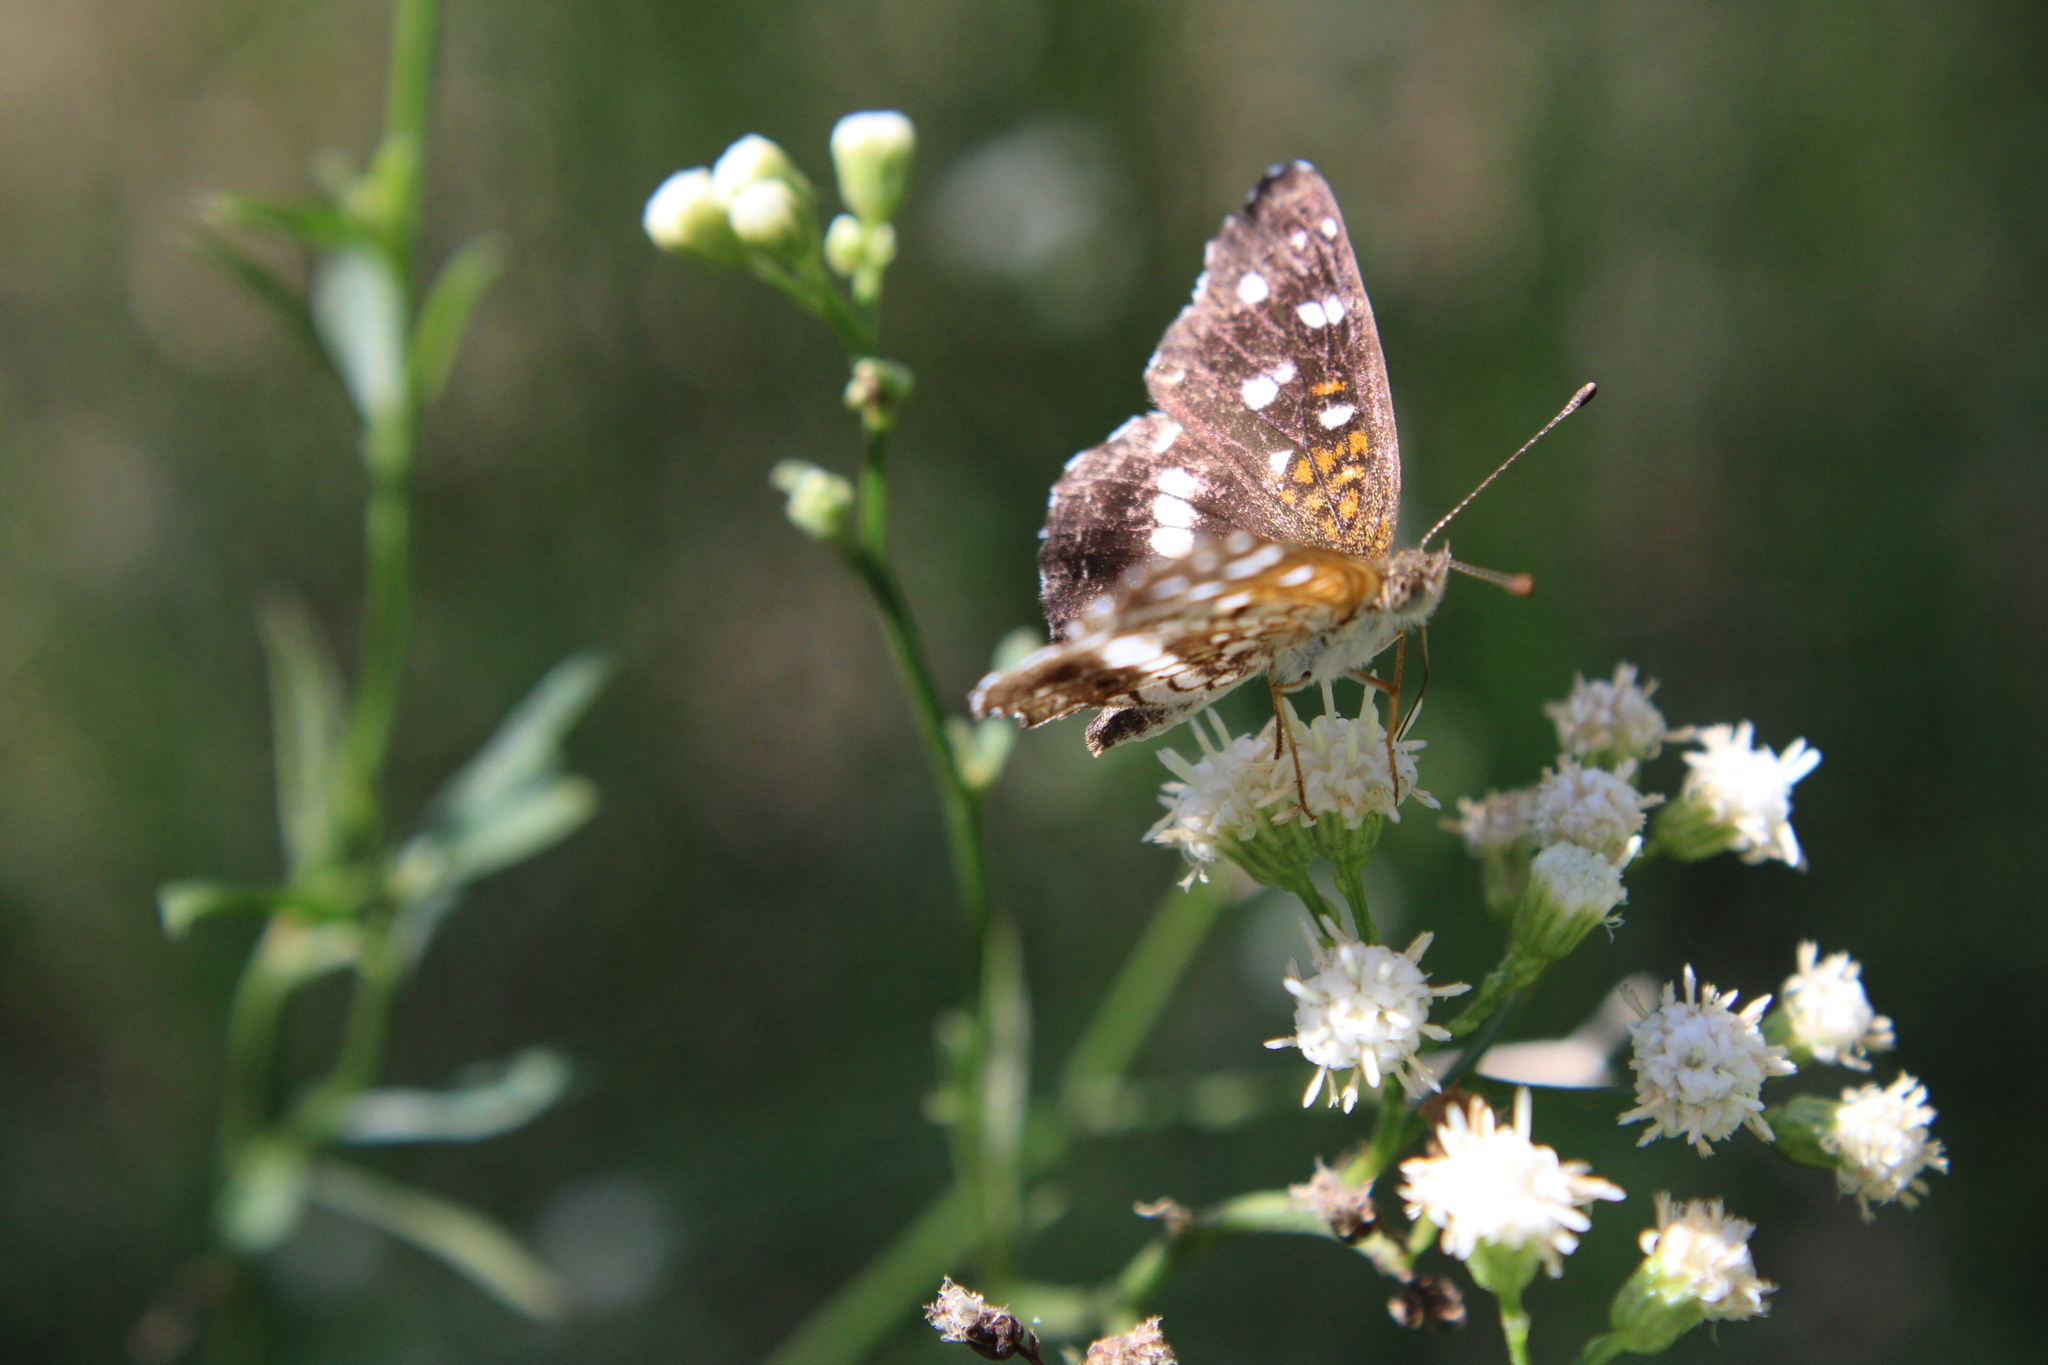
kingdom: Animalia
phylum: Arthropoda
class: Insecta
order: Lepidoptera
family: Nymphalidae
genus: Ortilia
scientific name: Ortilia ithra
